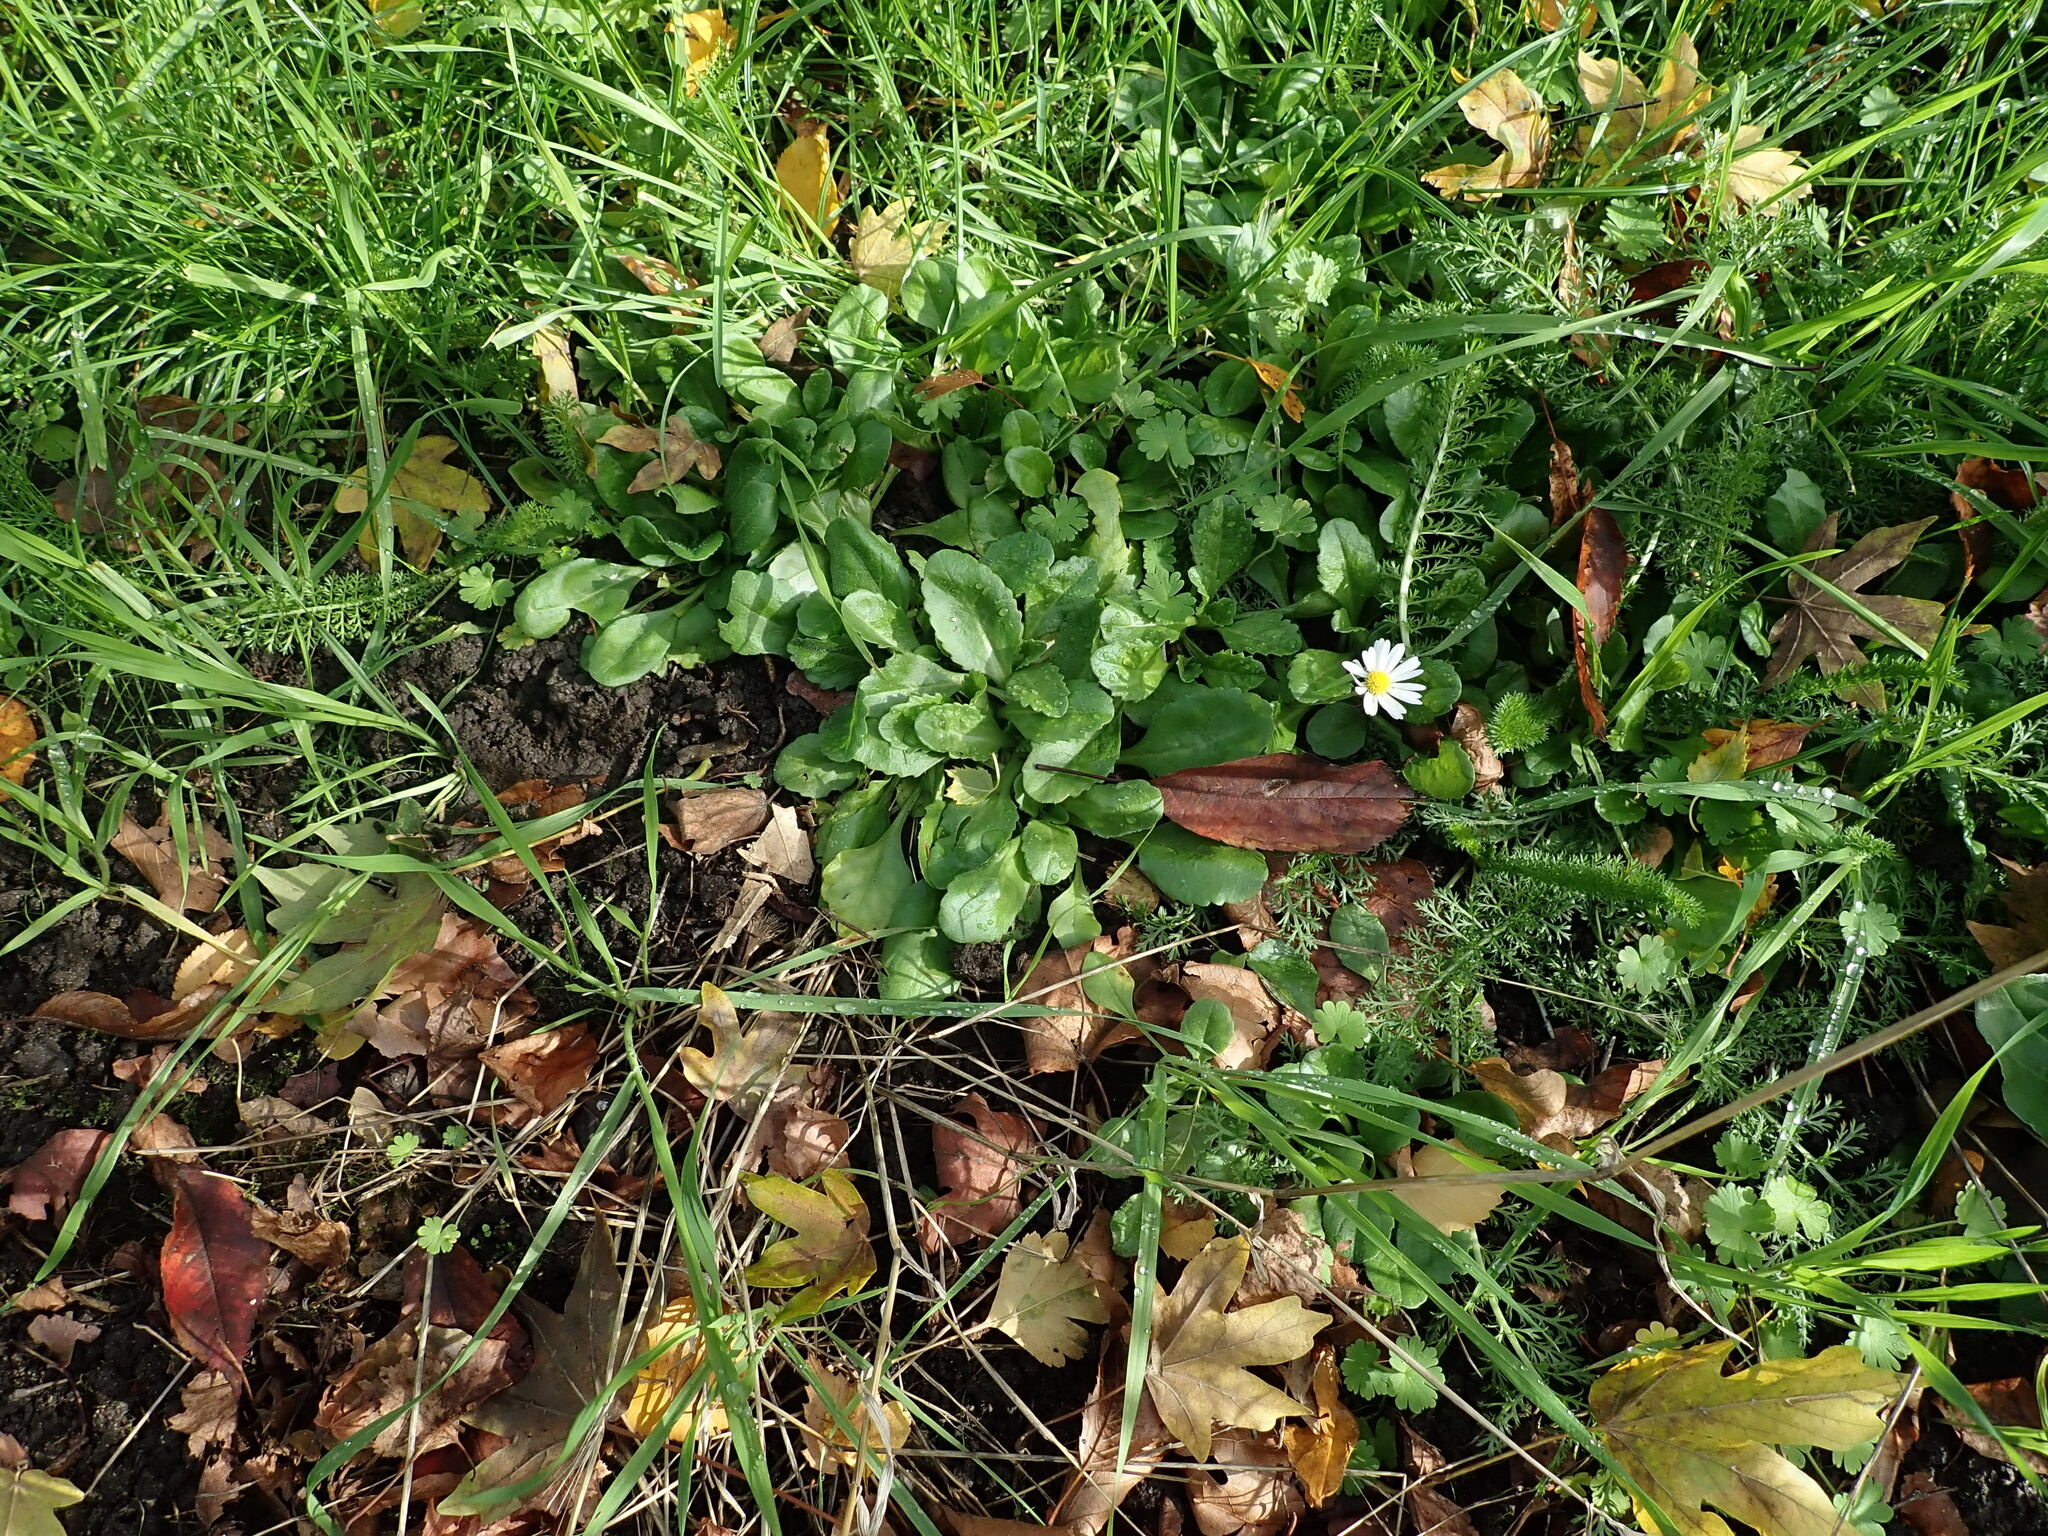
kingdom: Plantae
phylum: Tracheophyta
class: Magnoliopsida
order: Asterales
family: Asteraceae
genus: Bellis
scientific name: Bellis perennis
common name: Lawndaisy
